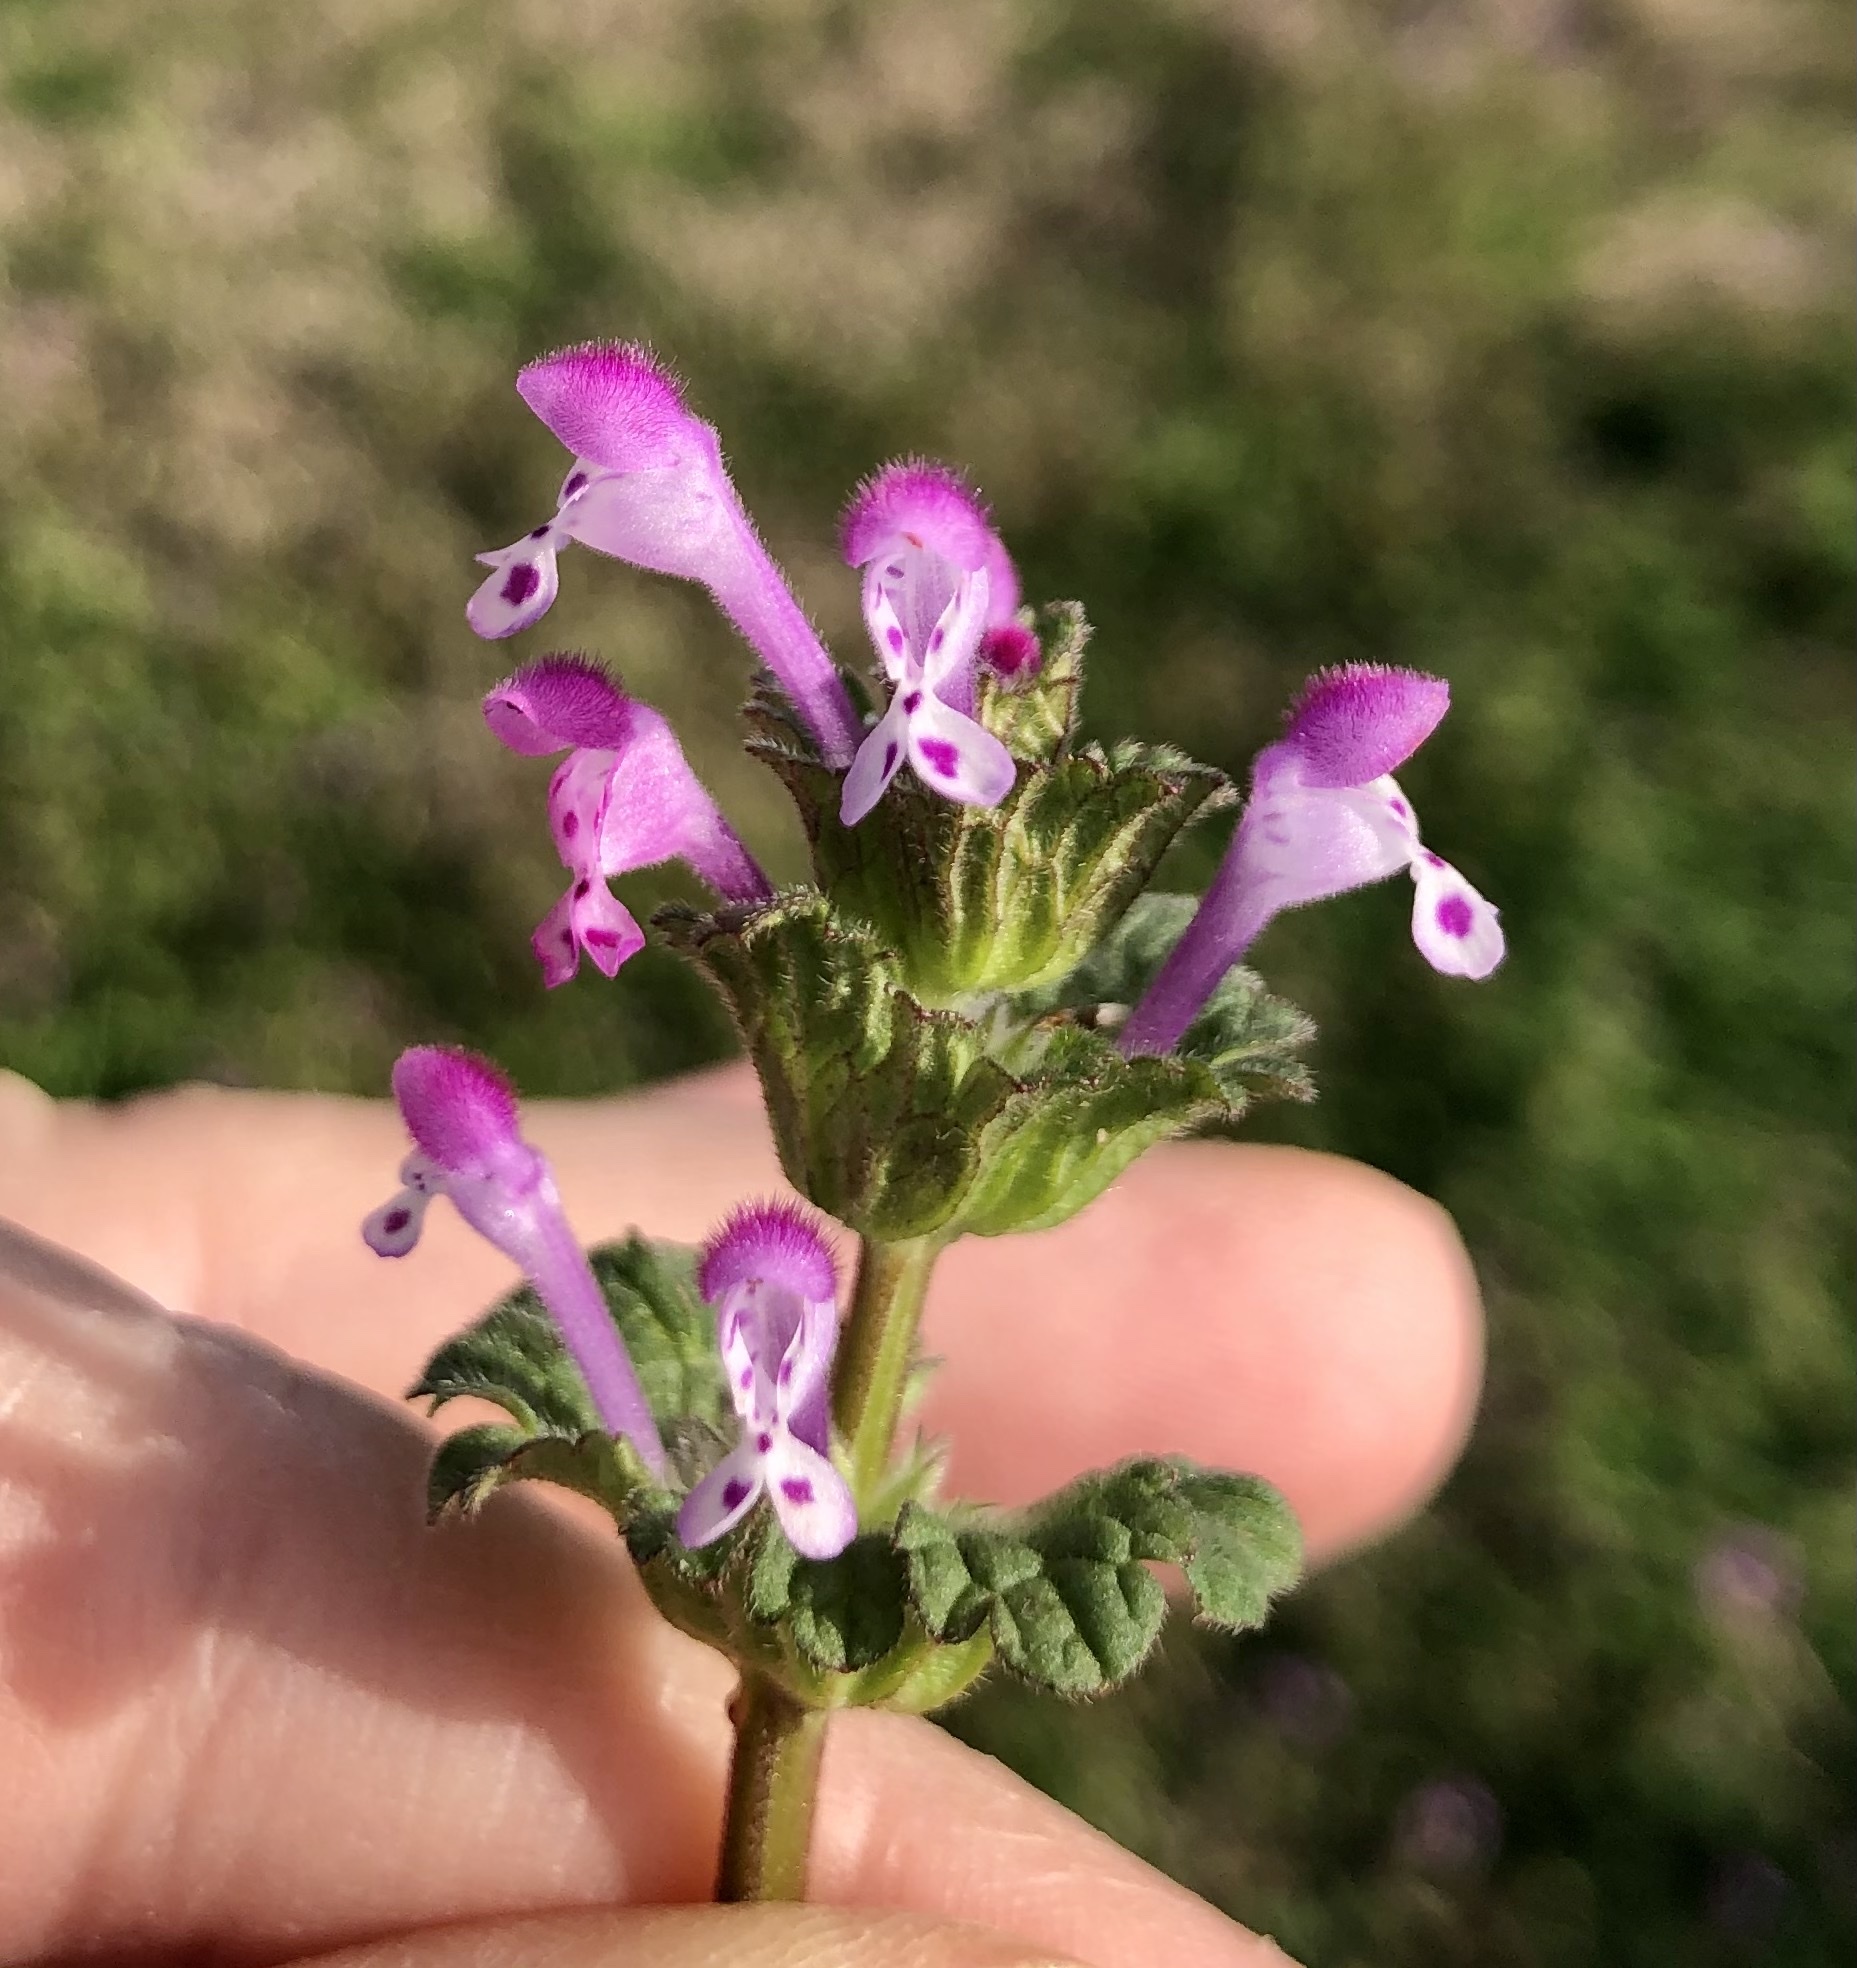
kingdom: Plantae
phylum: Tracheophyta
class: Magnoliopsida
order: Lamiales
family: Lamiaceae
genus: Lamium
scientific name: Lamium amplexicaule
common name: Henbit dead-nettle
